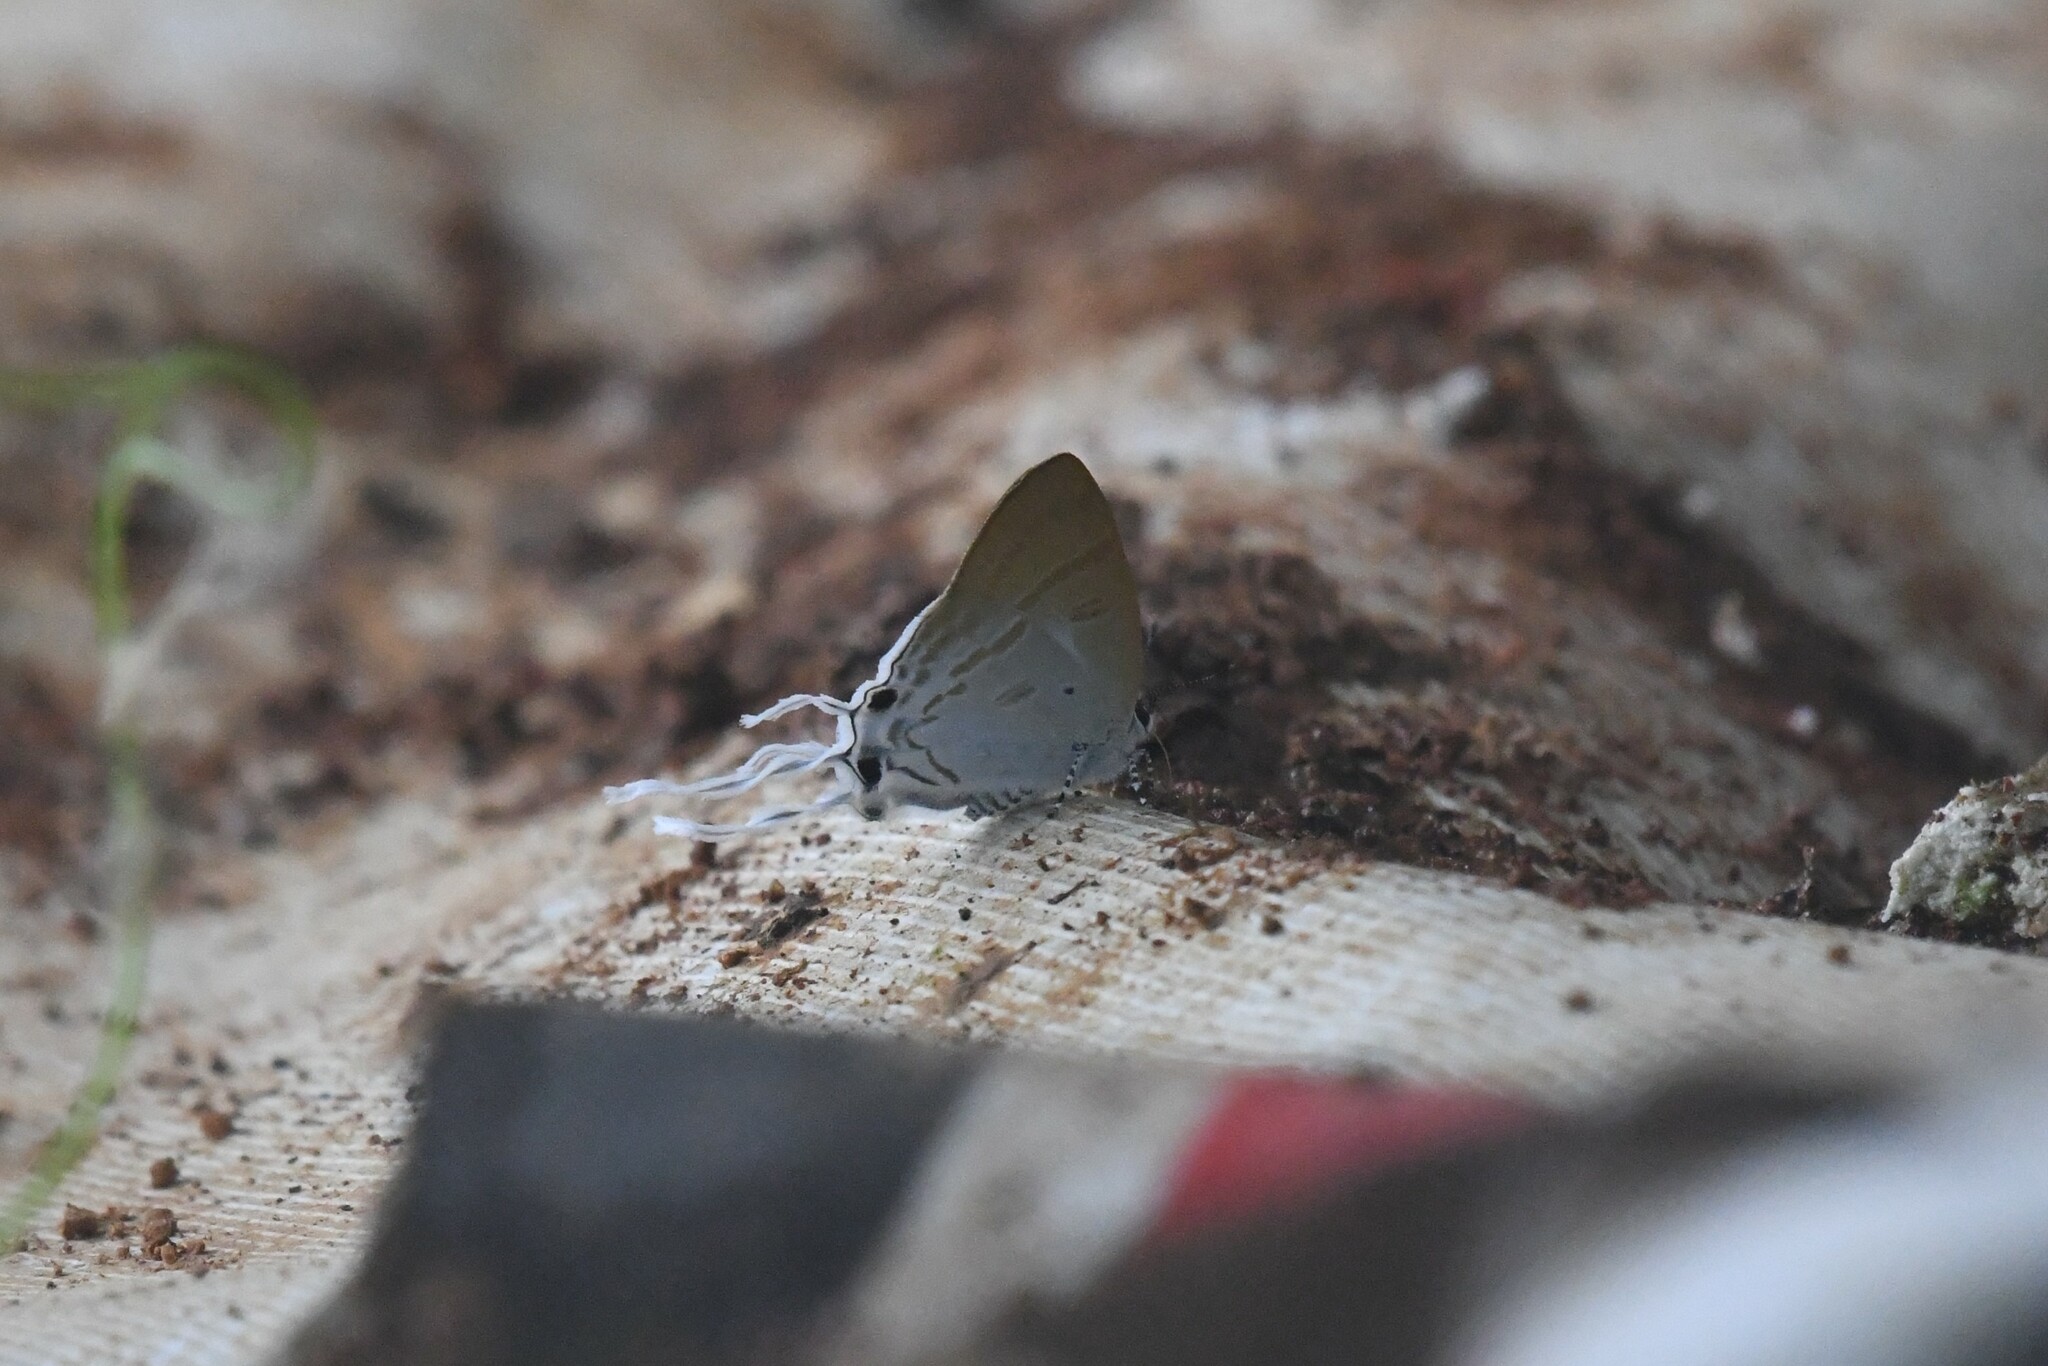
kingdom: Animalia
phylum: Arthropoda
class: Insecta
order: Lepidoptera
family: Lycaenidae
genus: Zeltus
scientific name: Zeltus amasa
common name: Fluffy tit
